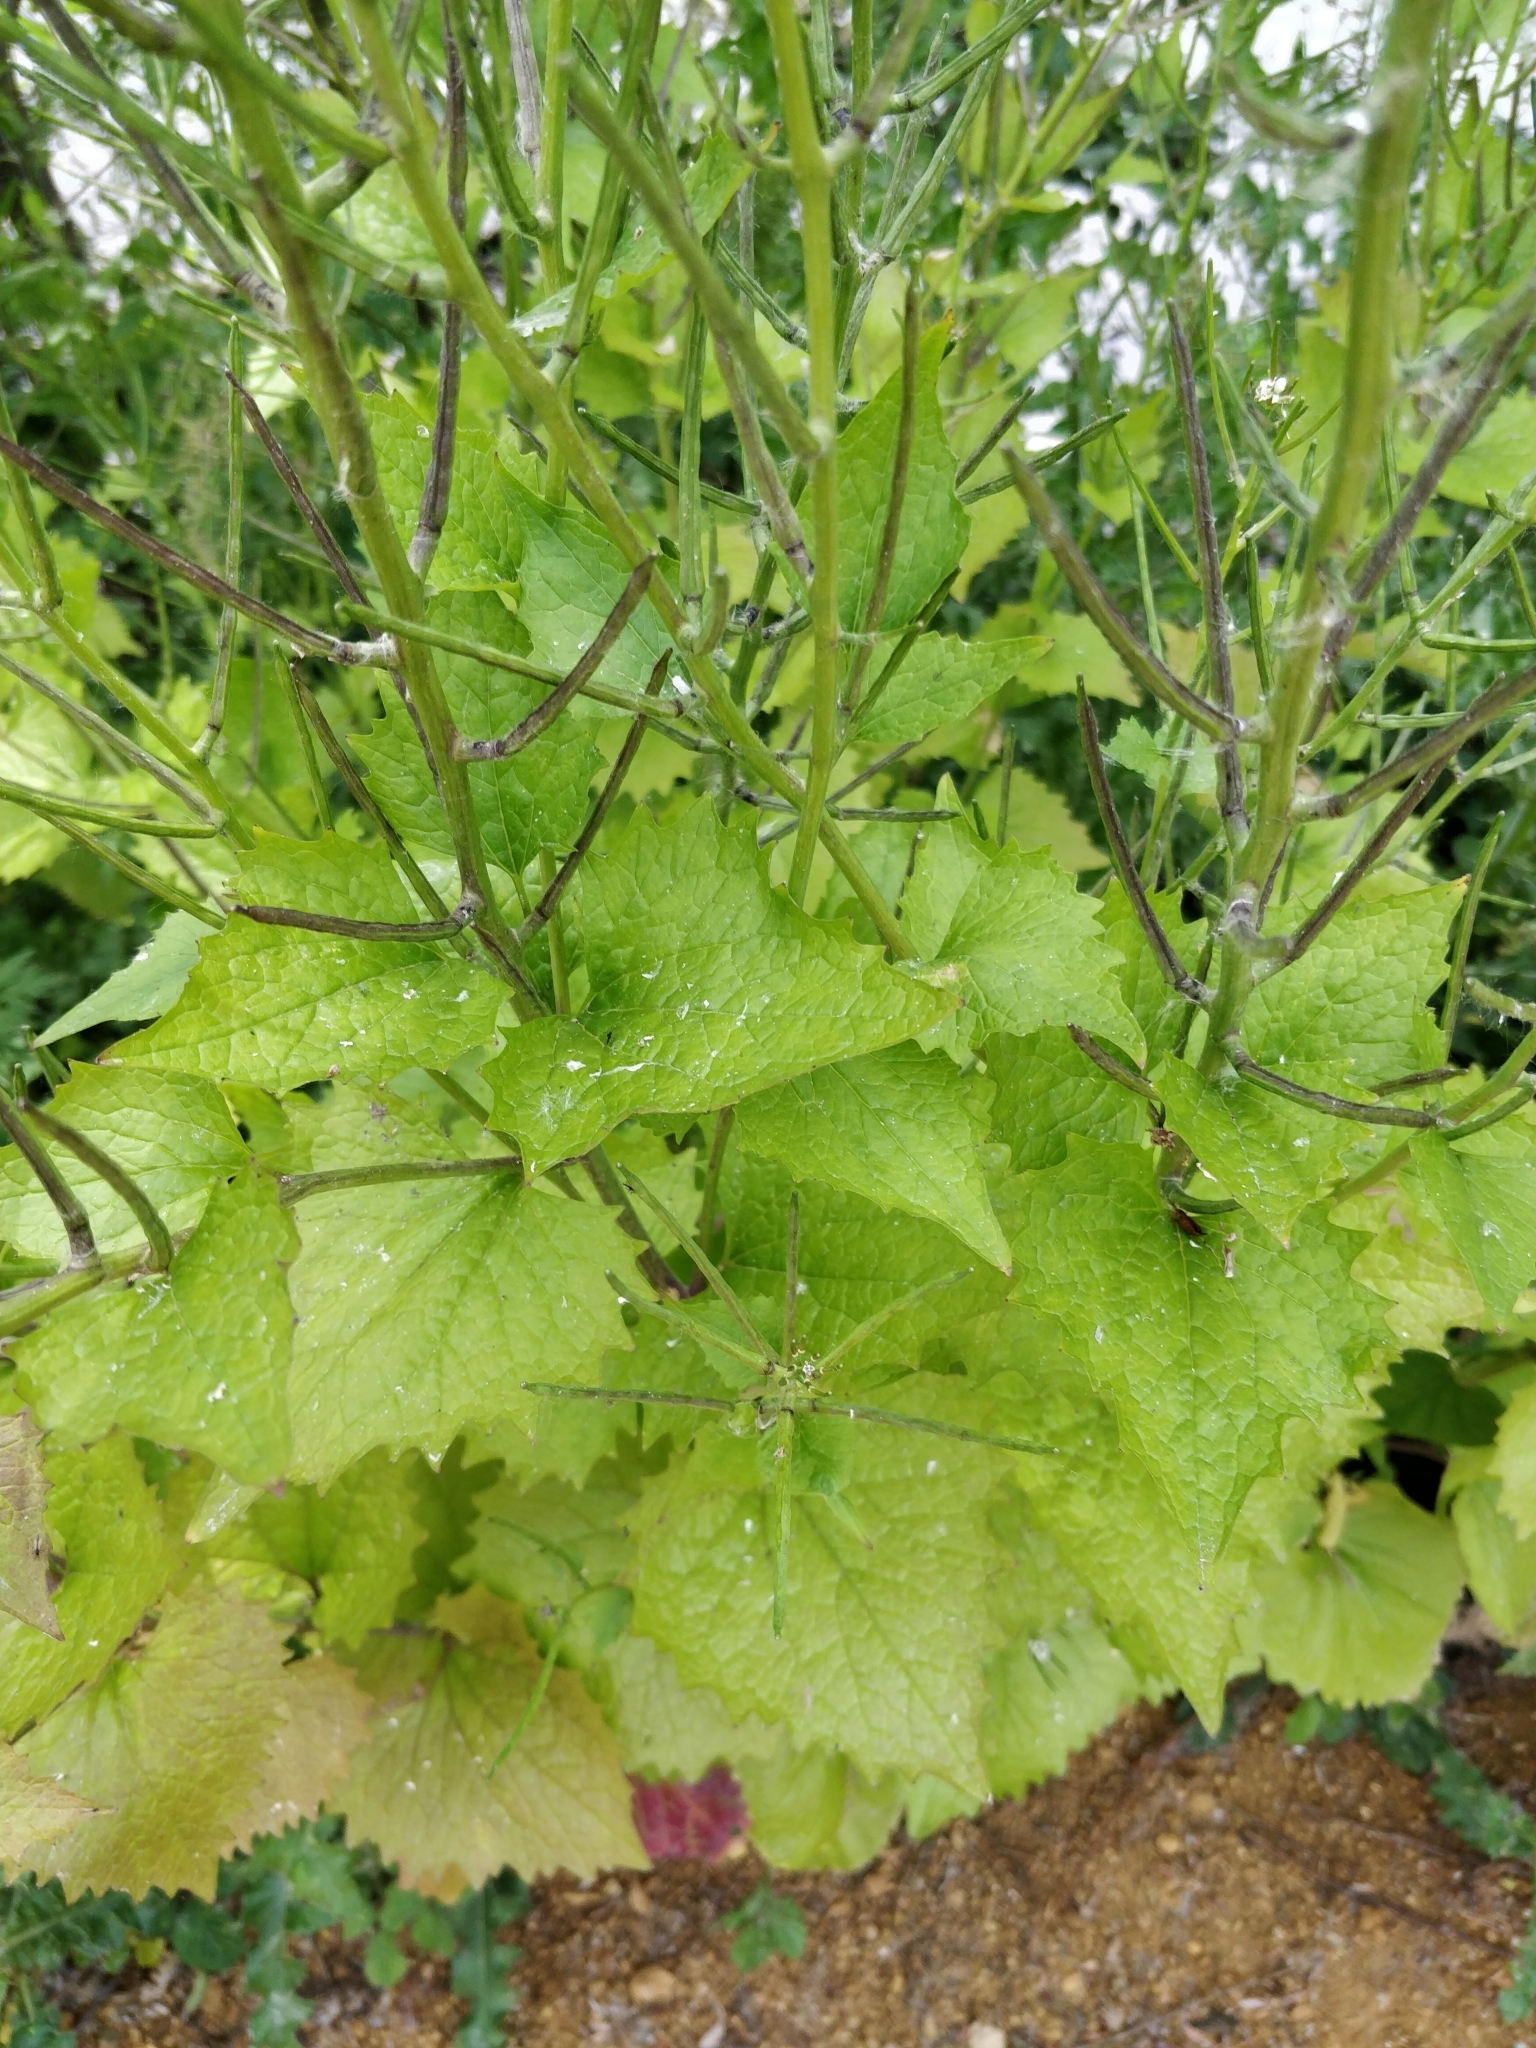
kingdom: Plantae
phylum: Tracheophyta
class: Magnoliopsida
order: Brassicales
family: Brassicaceae
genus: Alliaria
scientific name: Alliaria petiolata
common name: Garlic mustard
